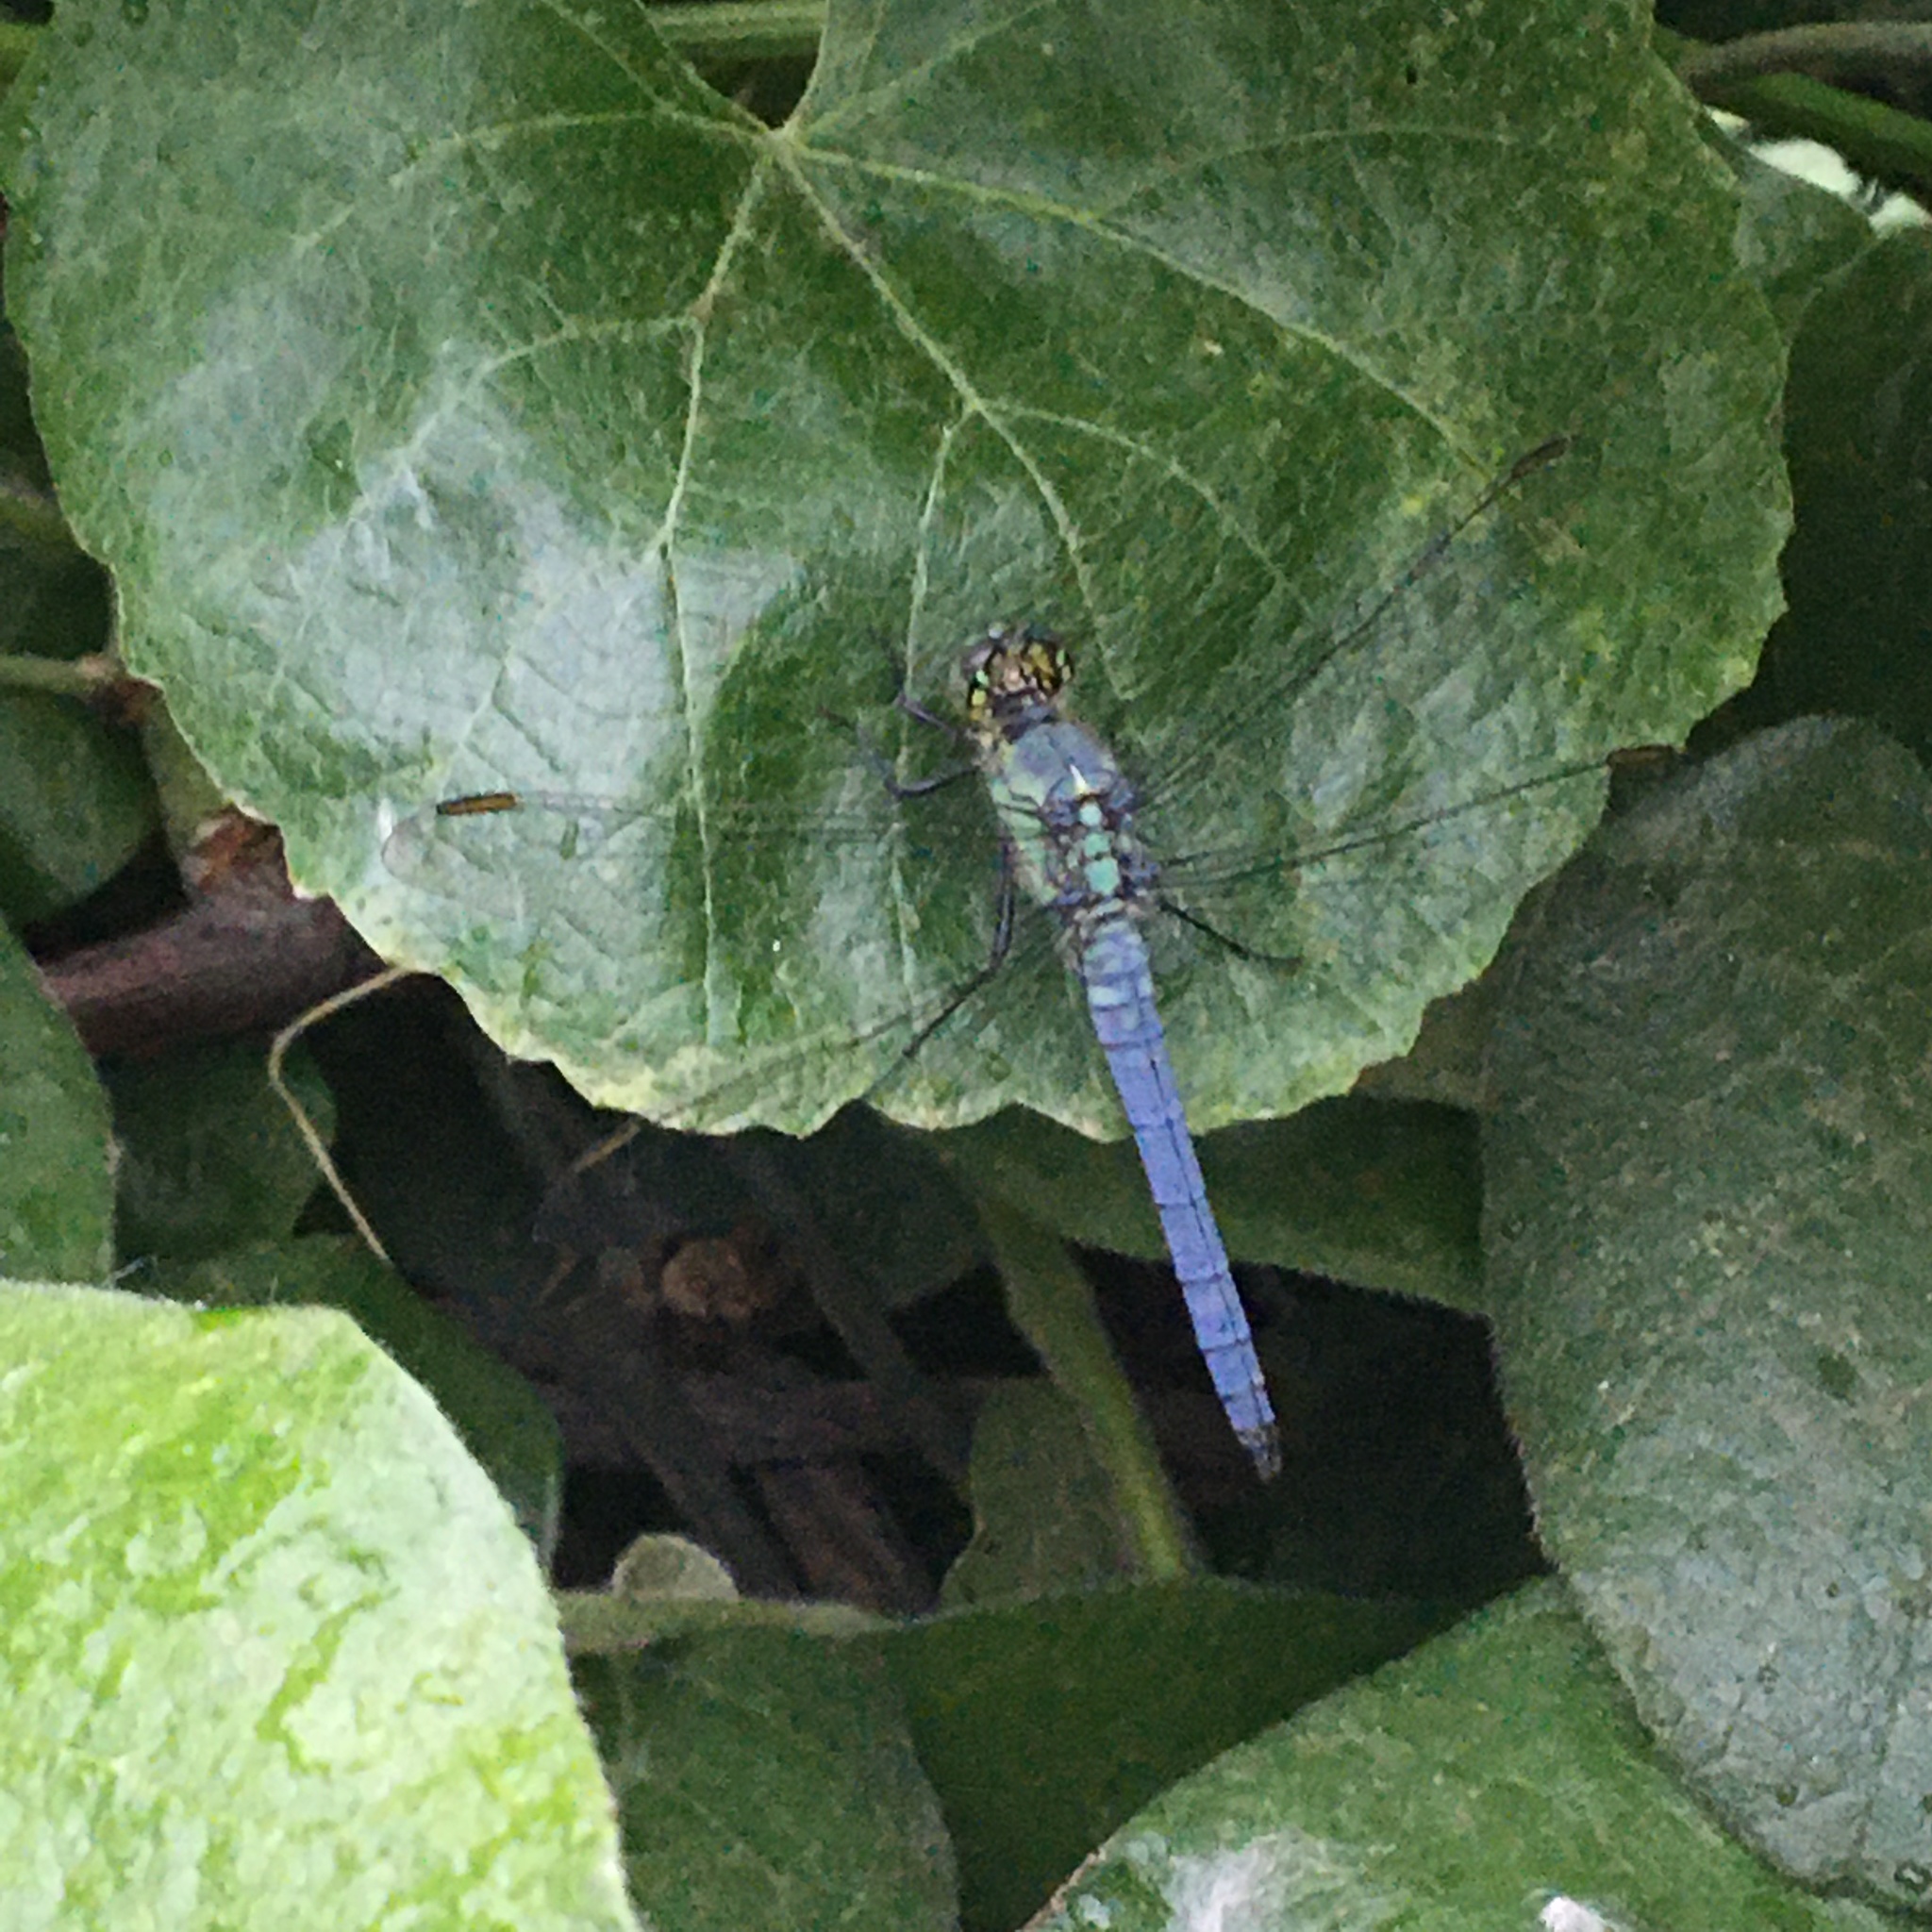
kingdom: Animalia
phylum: Arthropoda
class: Insecta
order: Odonata
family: Libellulidae
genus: Erythemis
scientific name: Erythemis collocata
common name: Western pondhawk
